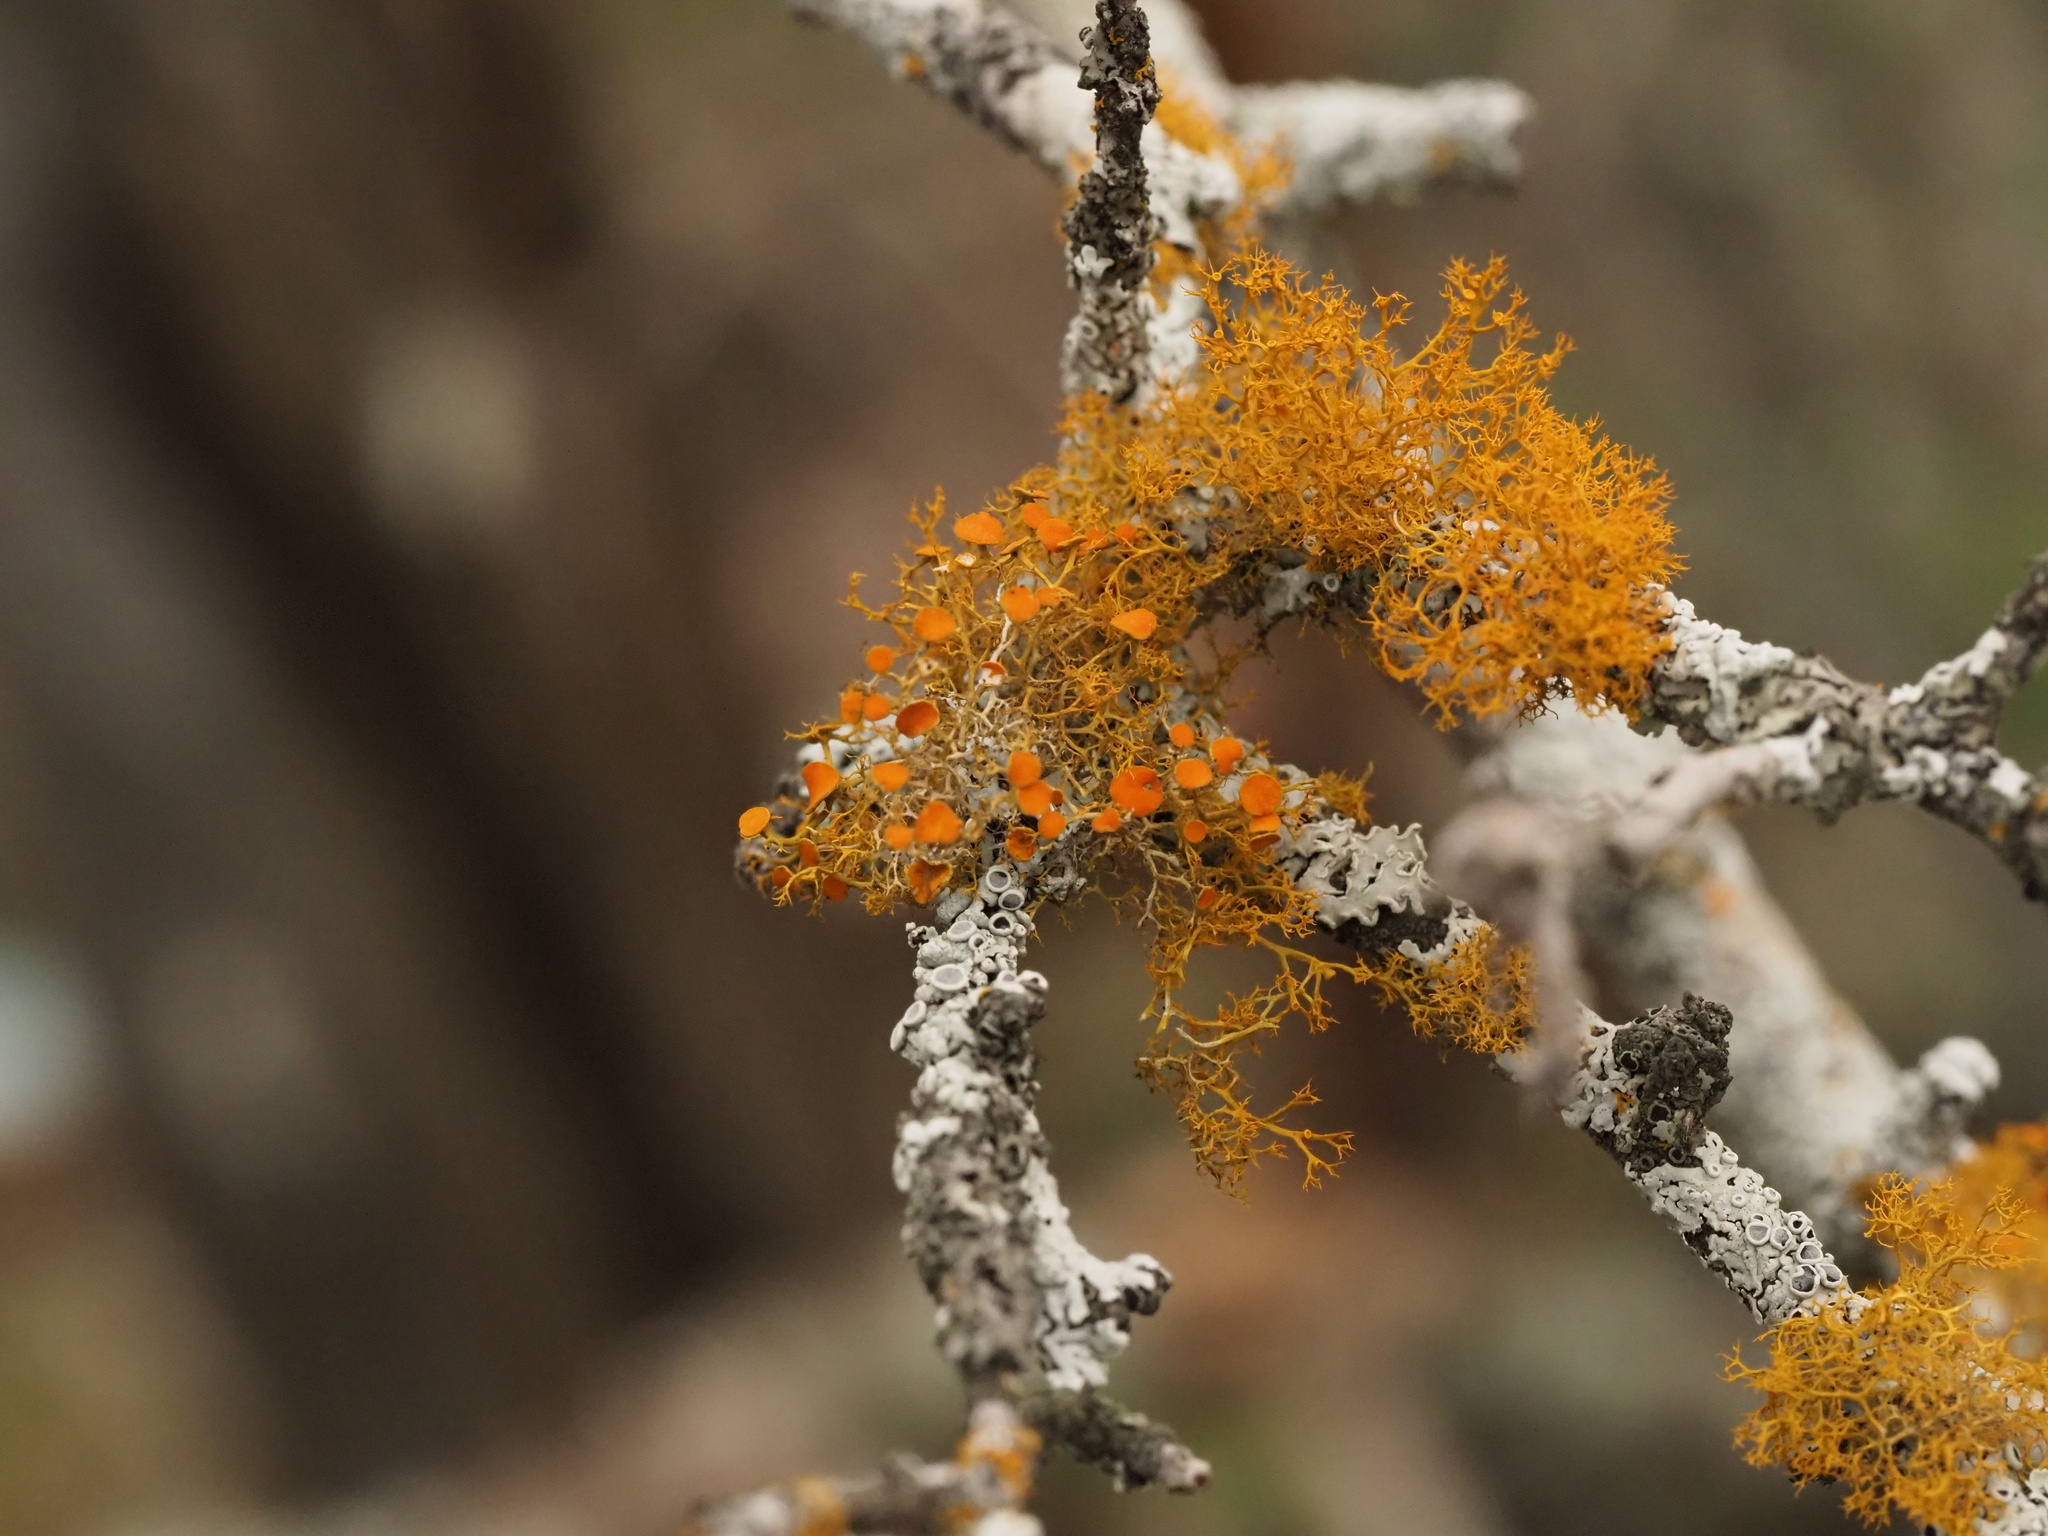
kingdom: Fungi
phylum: Ascomycota
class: Lecanoromycetes
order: Teloschistales
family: Teloschistaceae
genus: Teloschistes
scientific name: Teloschistes exilis
